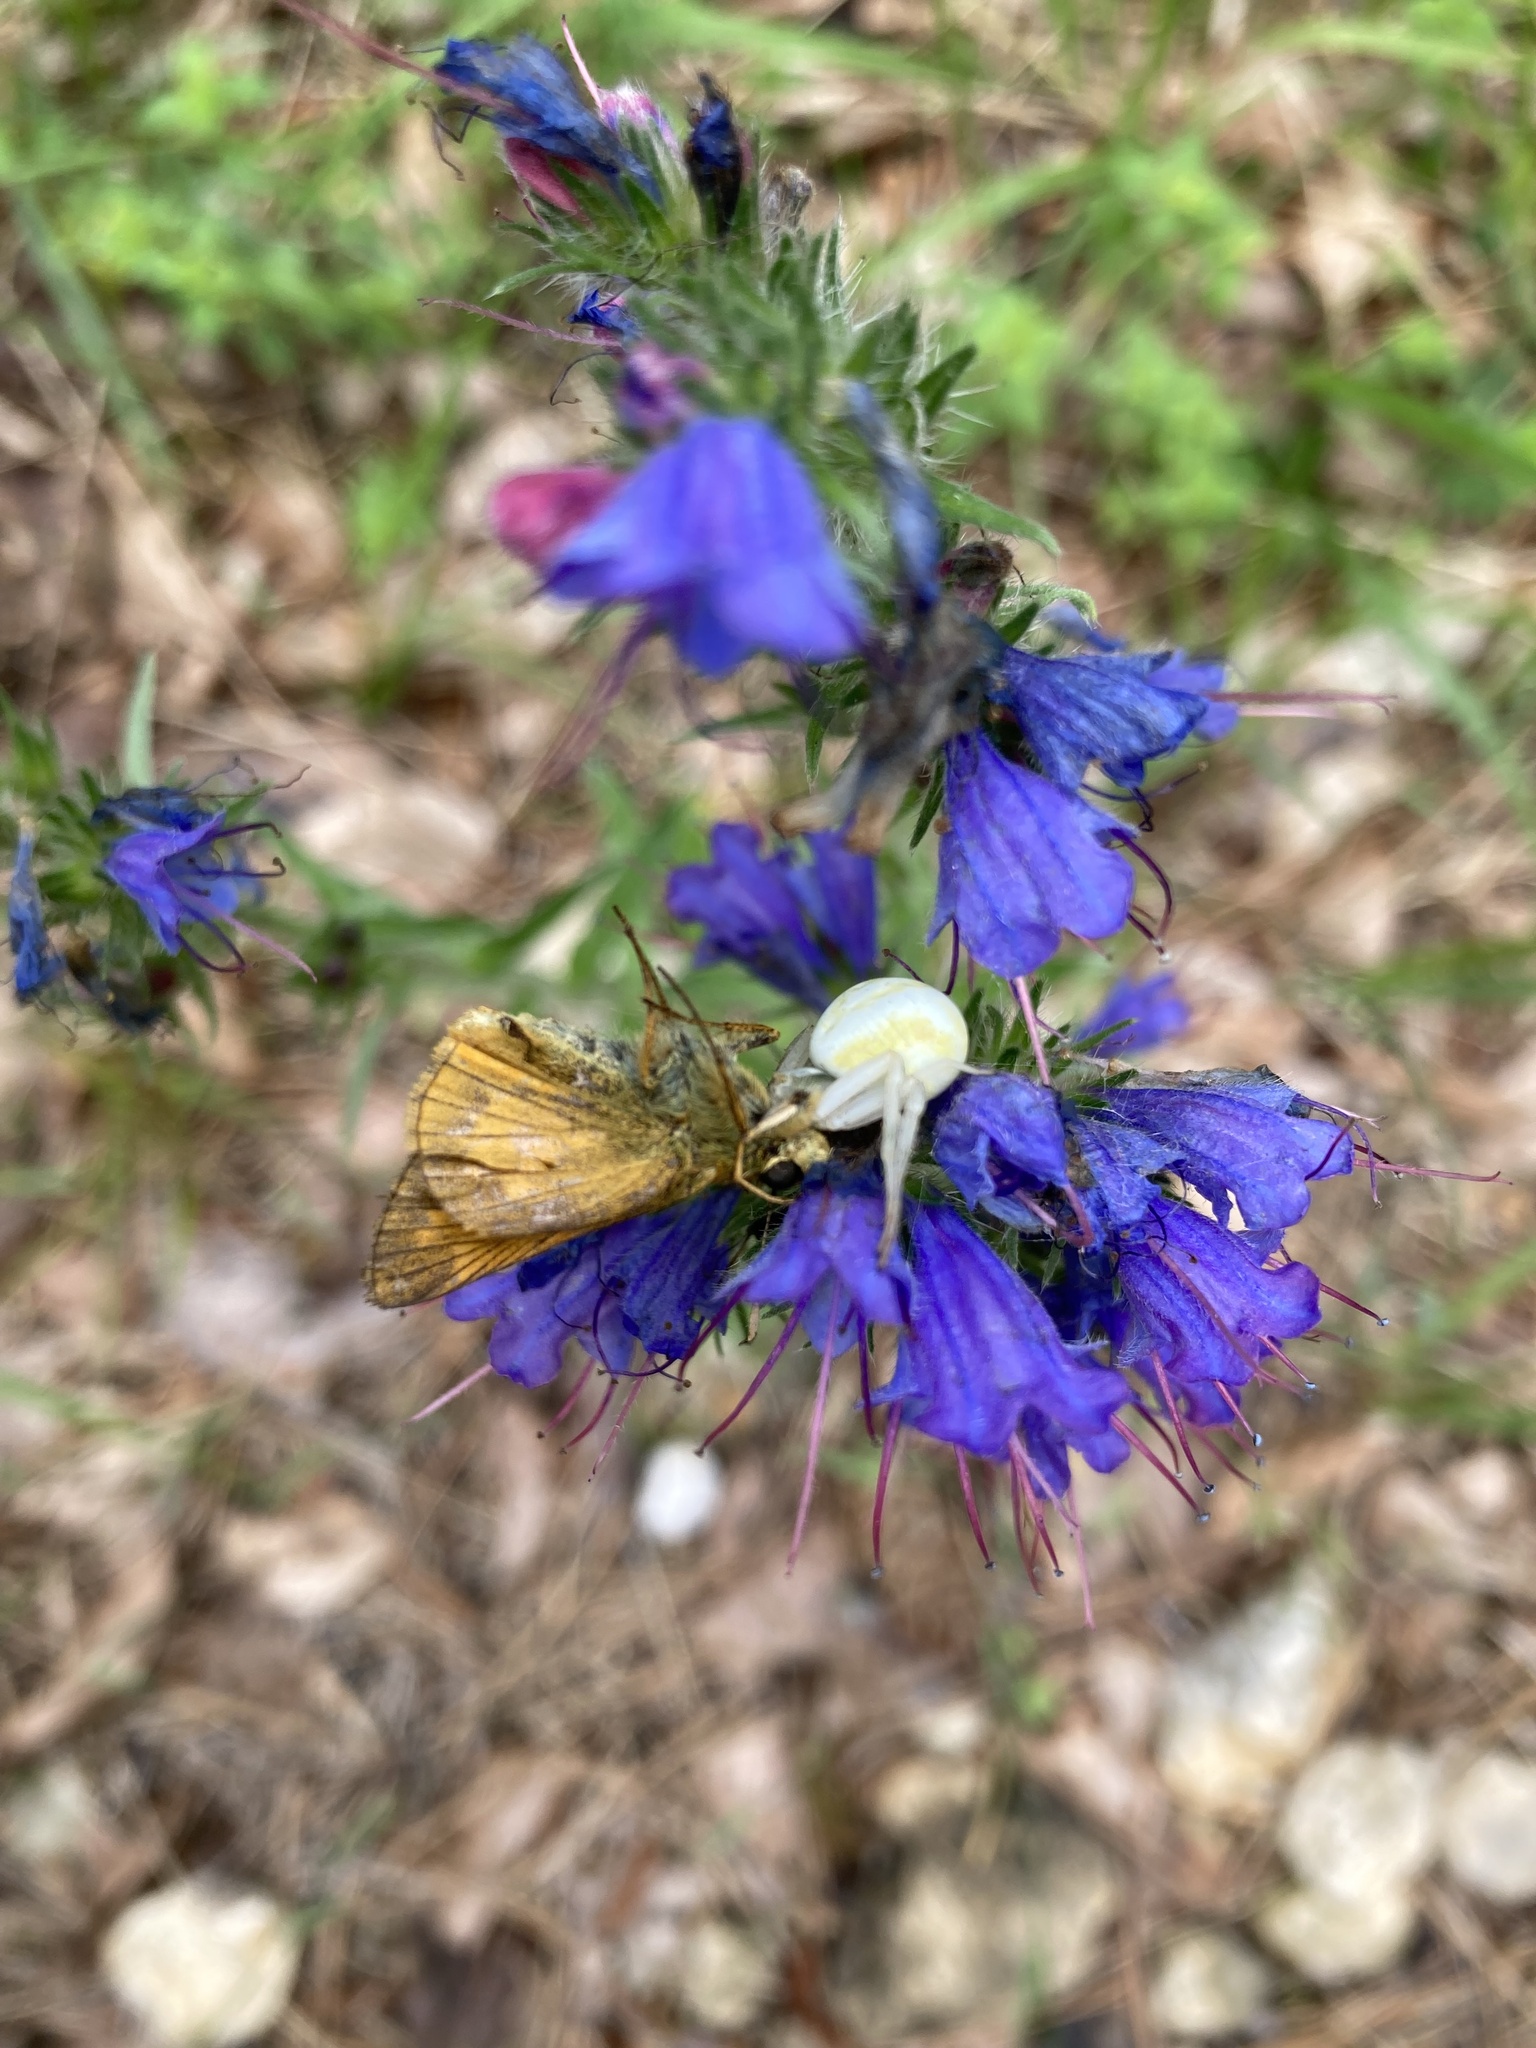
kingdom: Animalia
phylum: Arthropoda
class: Arachnida
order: Araneae
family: Thomisidae
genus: Misumena
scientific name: Misumena vatia
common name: Goldenrod crab spider
